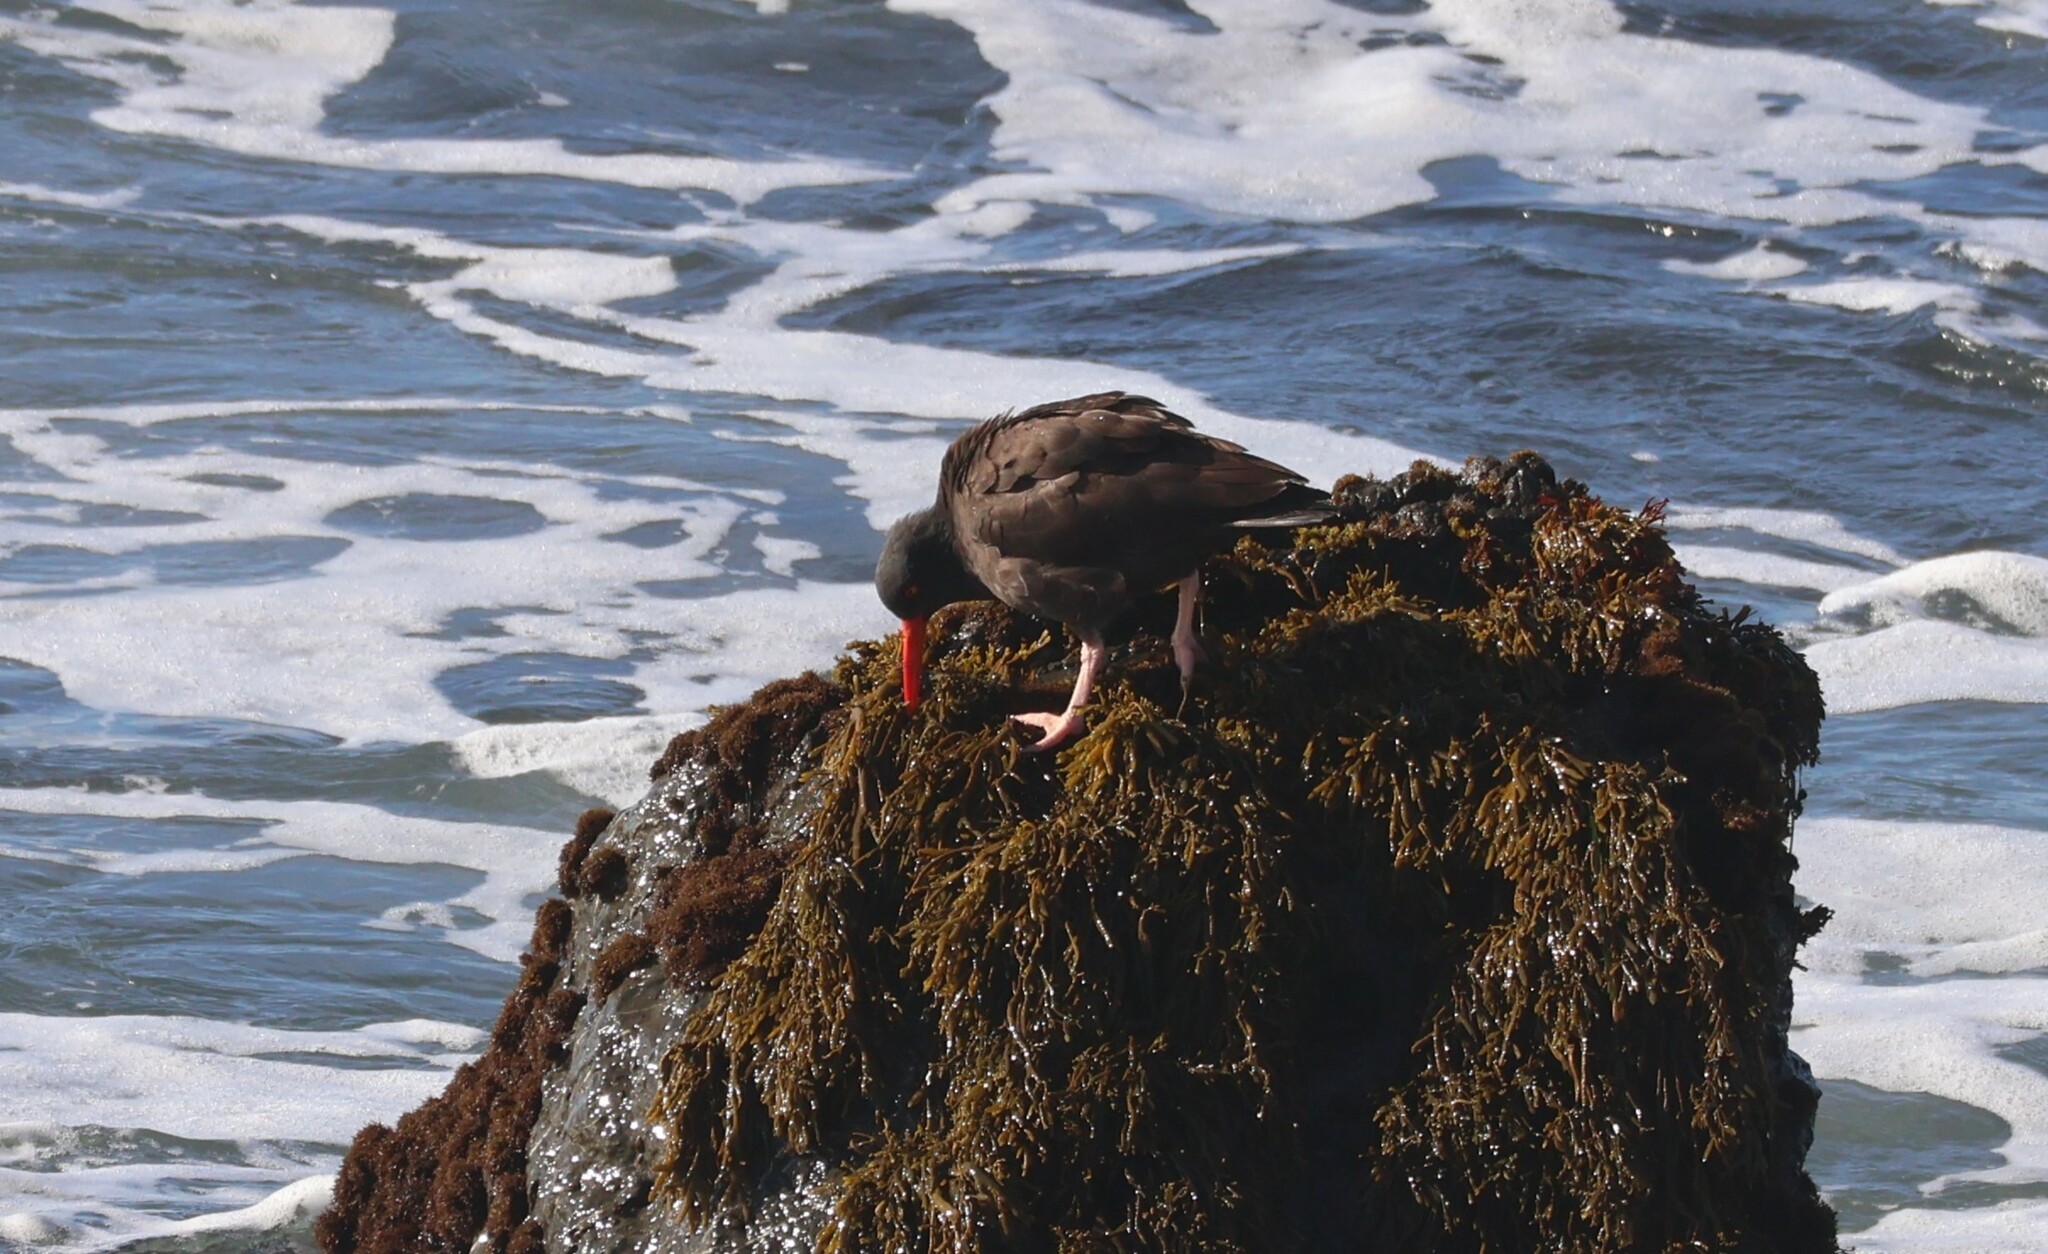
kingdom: Animalia
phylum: Chordata
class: Aves
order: Charadriiformes
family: Haematopodidae
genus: Haematopus
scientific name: Haematopus bachmani
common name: Black oystercatcher
